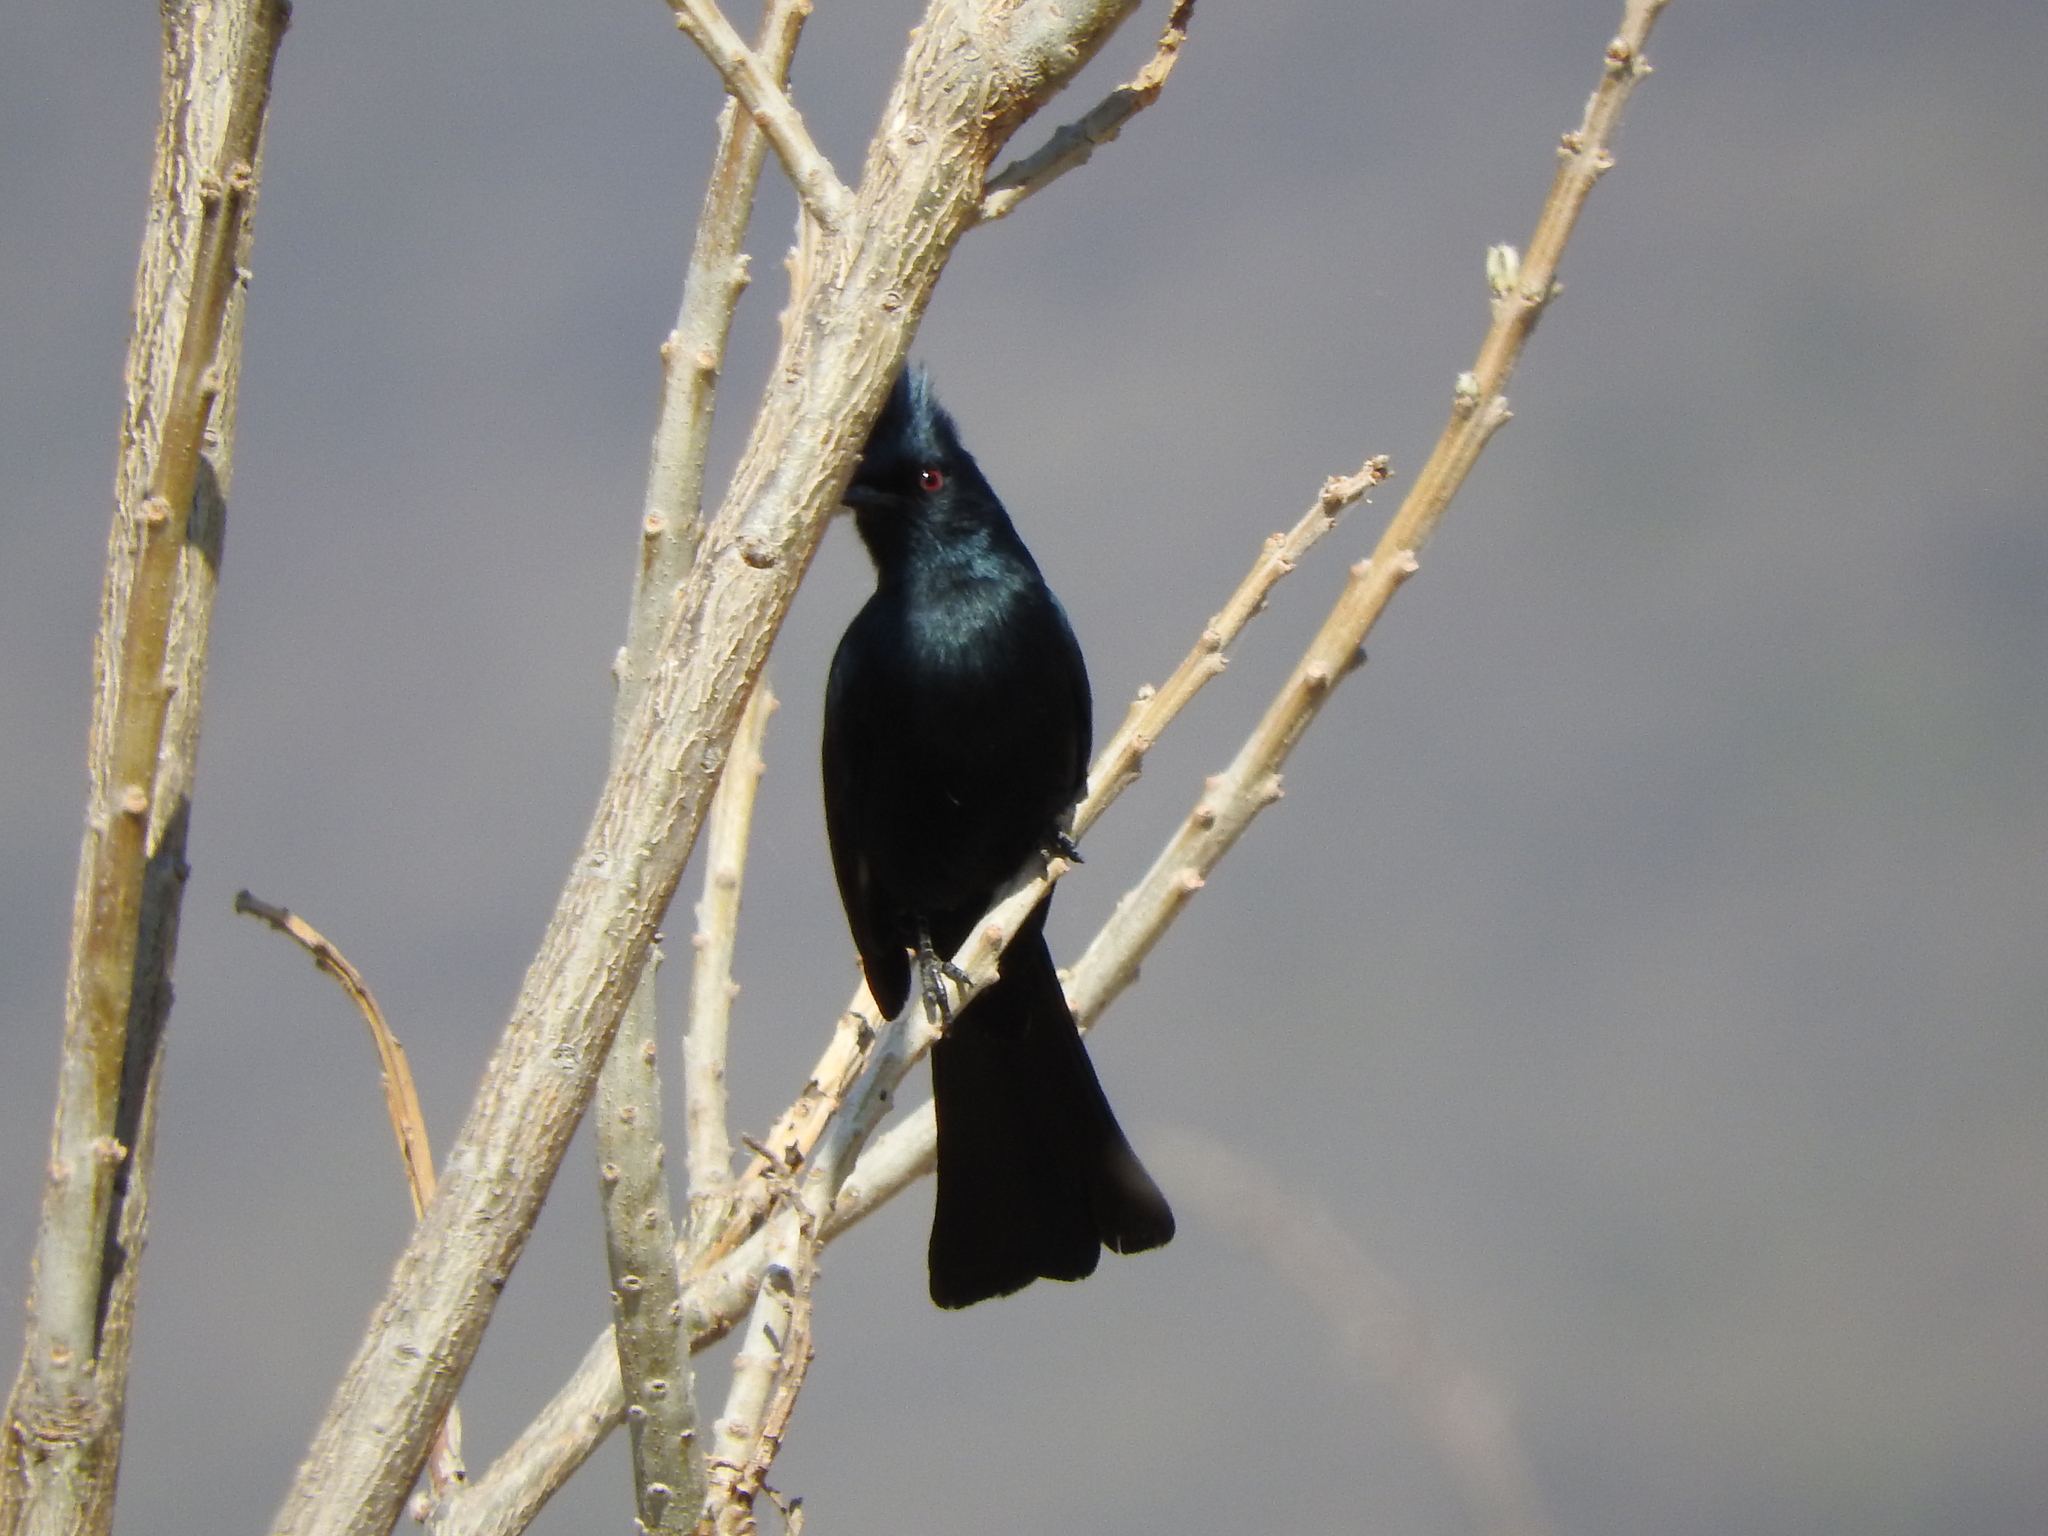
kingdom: Animalia
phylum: Chordata
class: Aves
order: Passeriformes
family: Ptilogonatidae
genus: Phainopepla
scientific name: Phainopepla nitens
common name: Phainopepla
